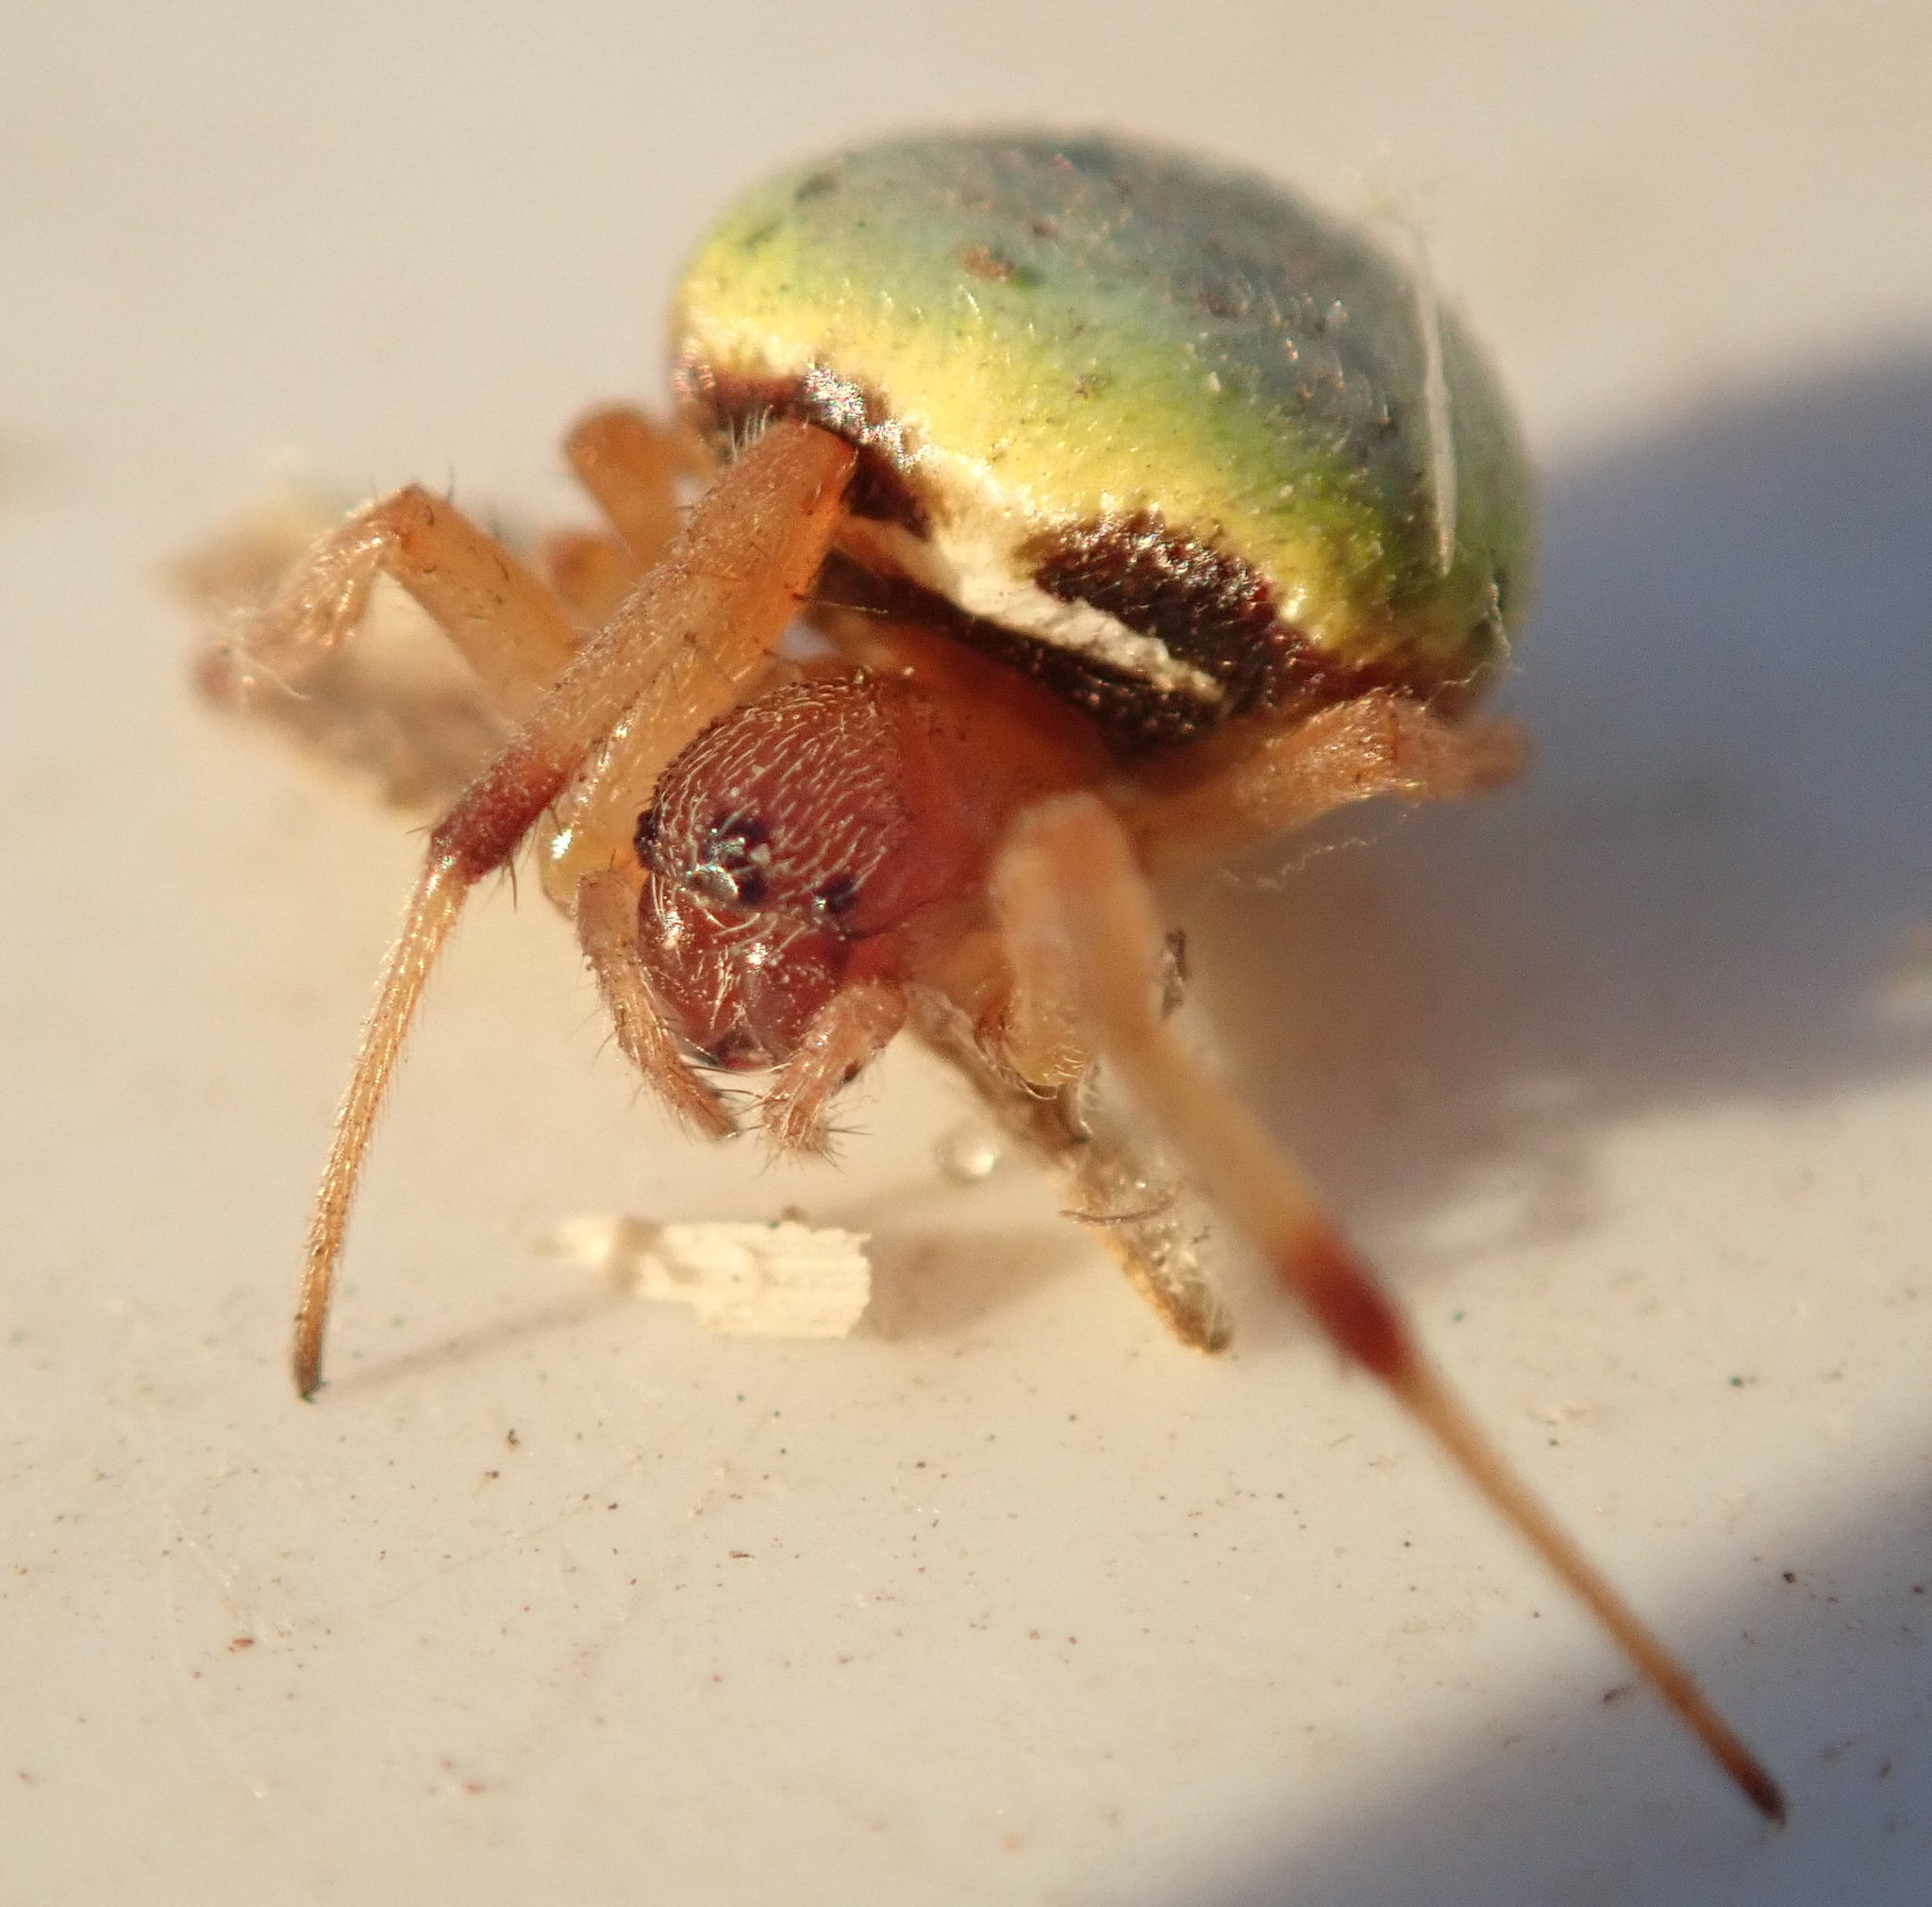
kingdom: Animalia
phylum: Arthropoda
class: Arachnida
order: Araneae
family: Araneidae
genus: Araneus
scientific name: Araneus apricus
